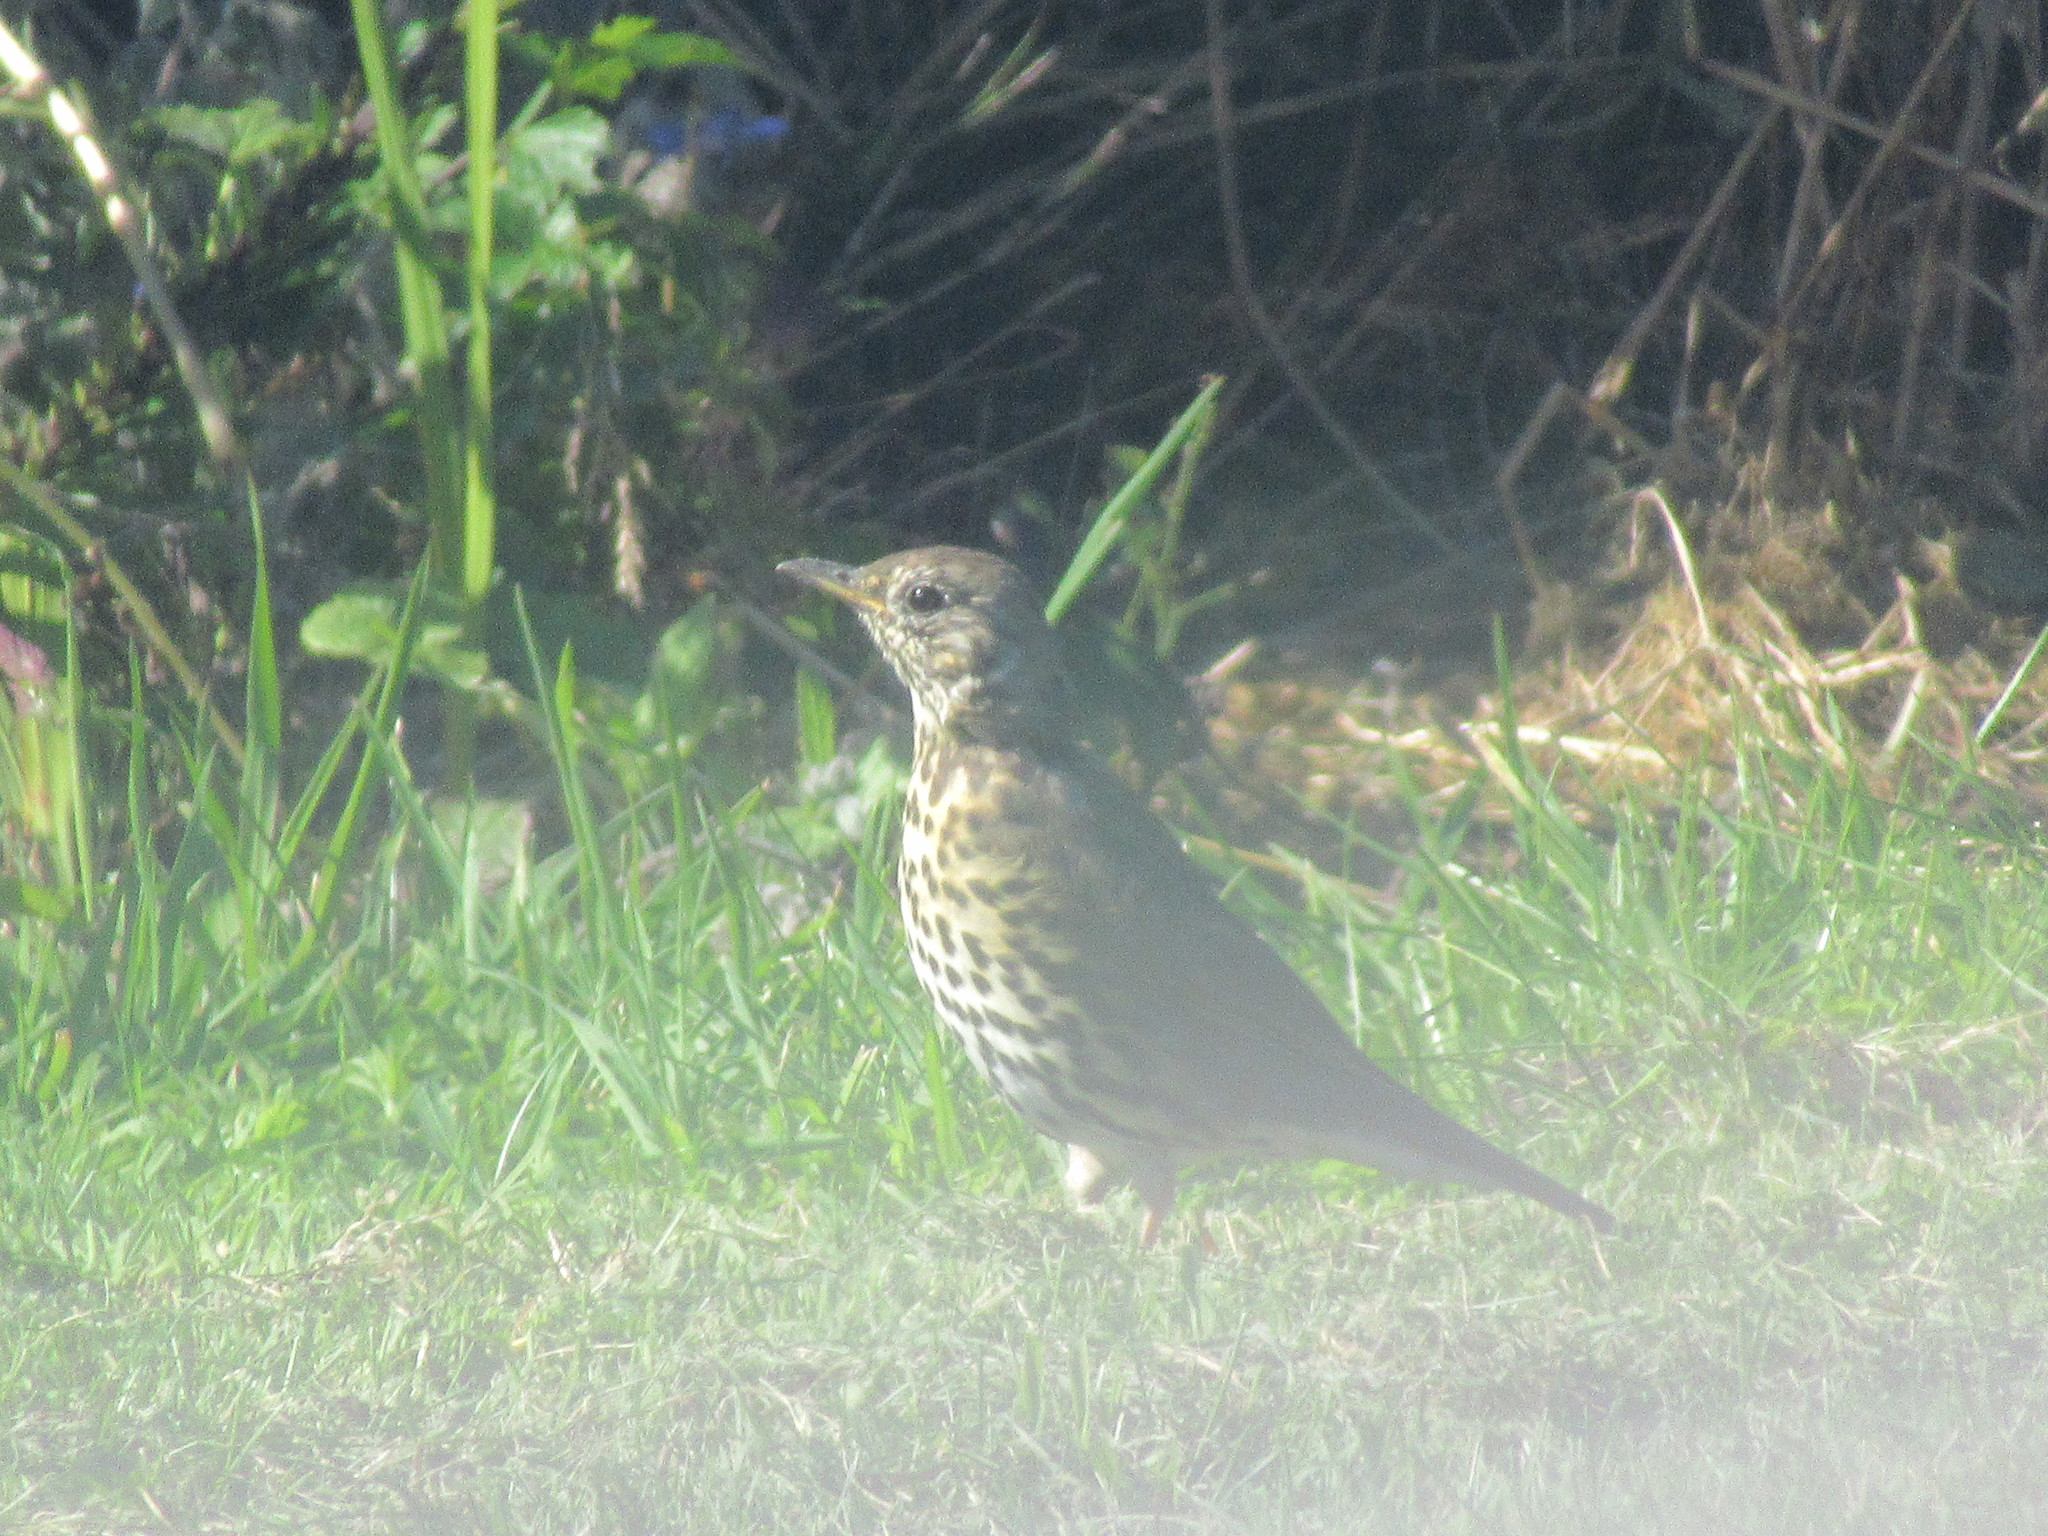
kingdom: Animalia
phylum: Chordata
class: Aves
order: Passeriformes
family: Turdidae
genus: Turdus
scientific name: Turdus philomelos
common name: Song thrush
